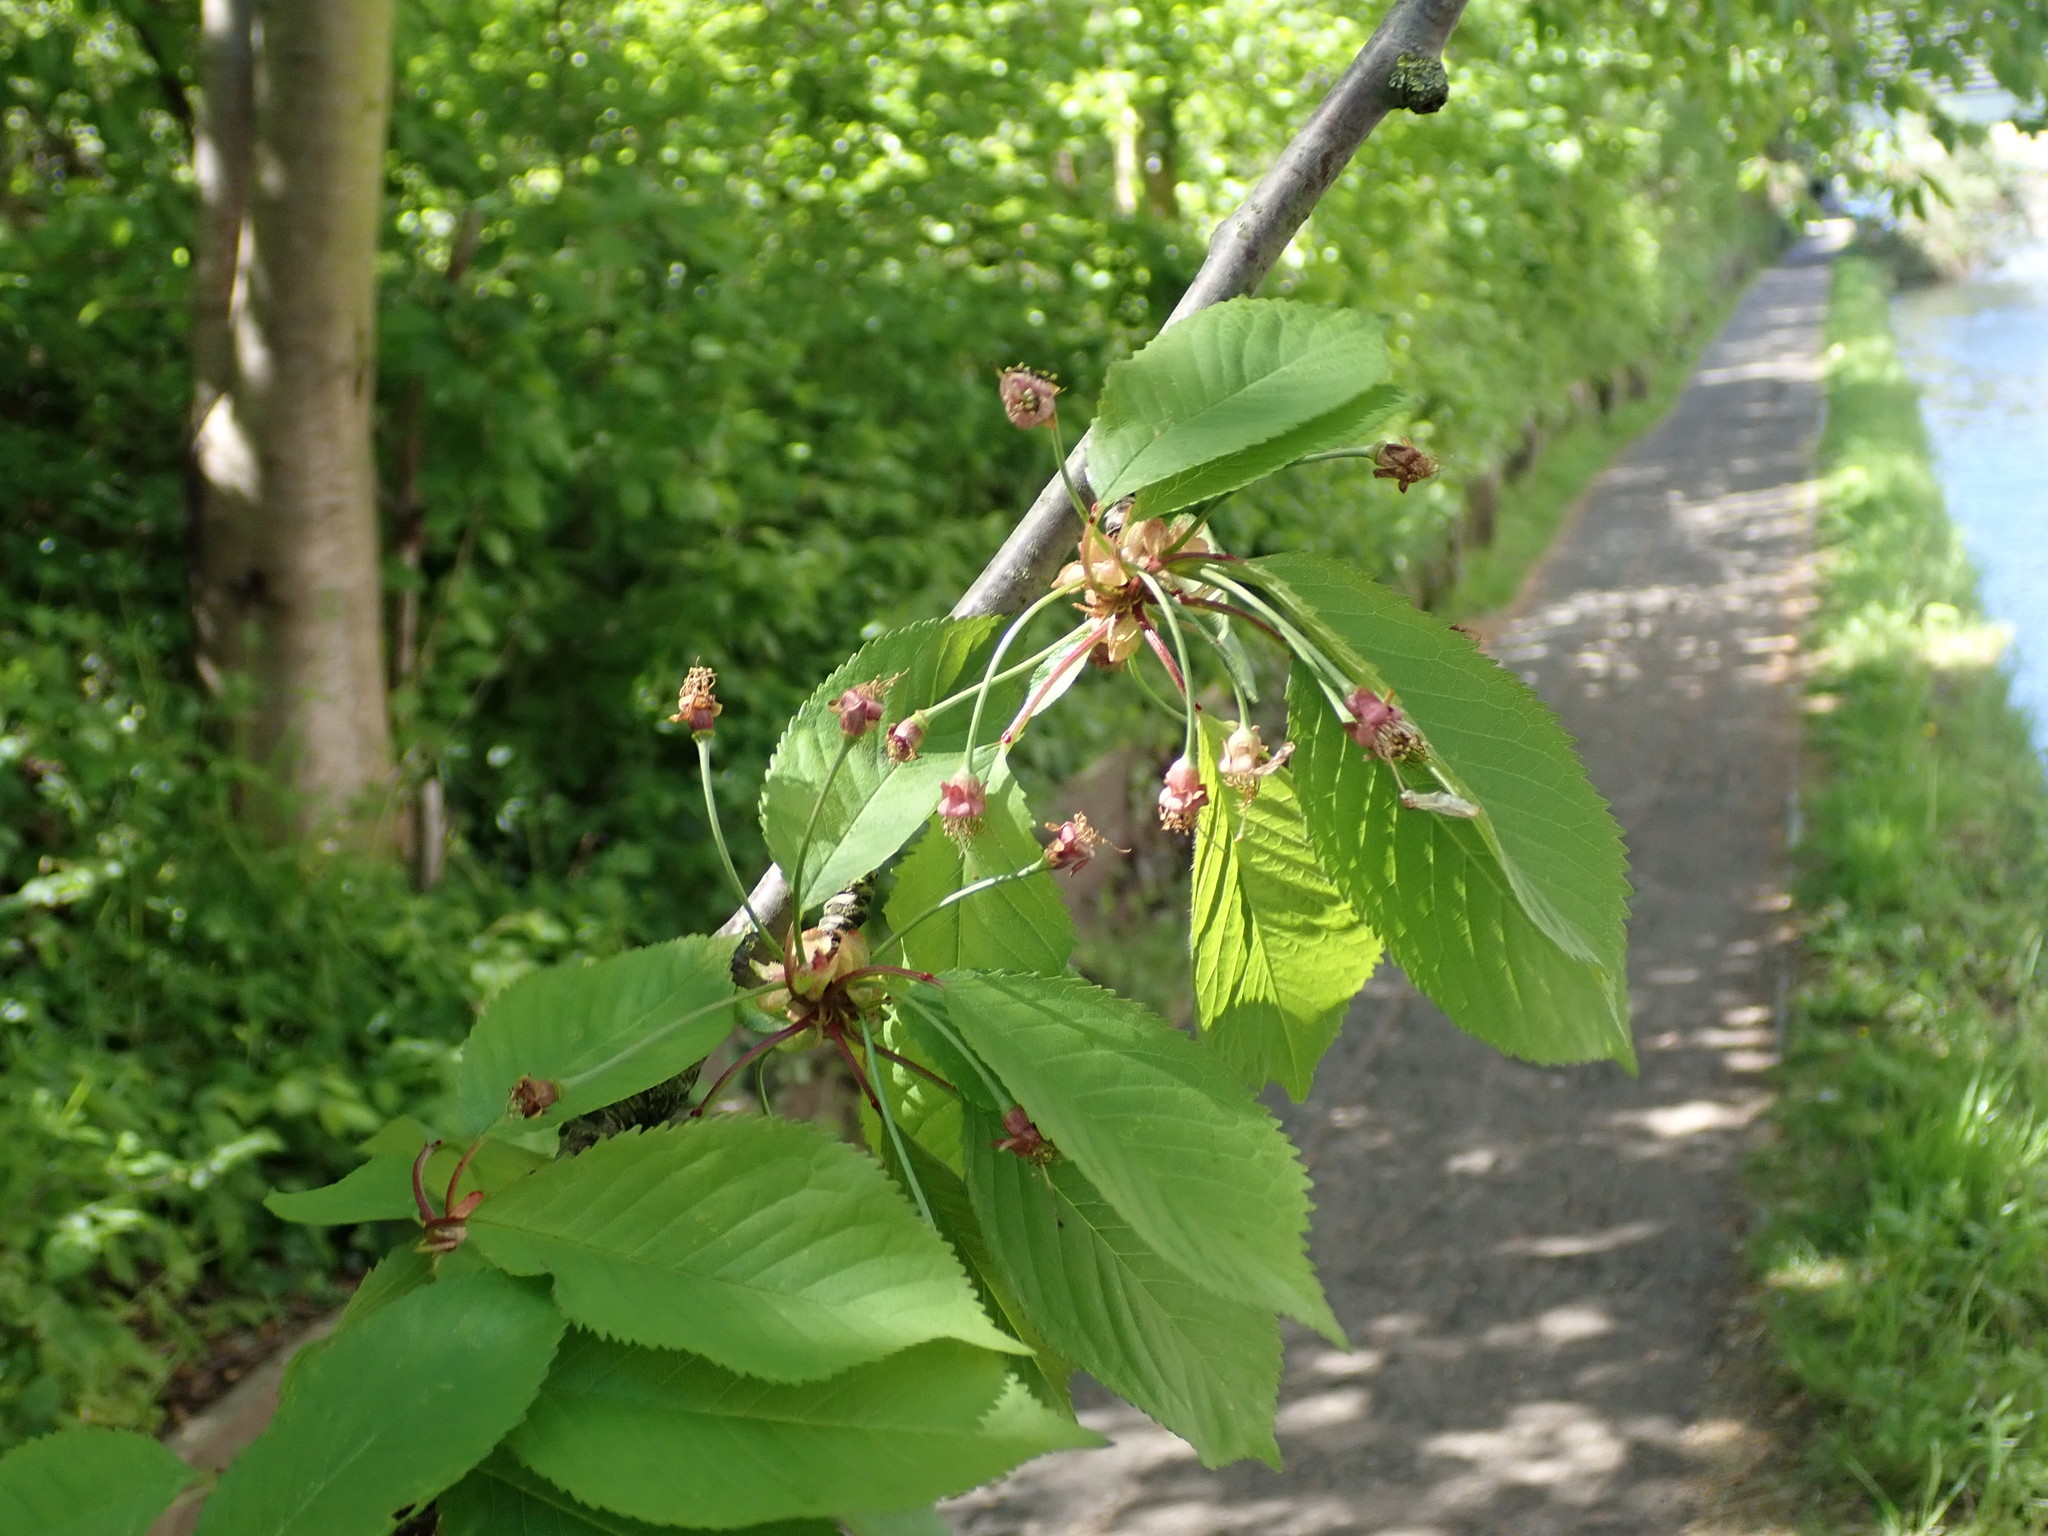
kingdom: Plantae
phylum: Tracheophyta
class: Magnoliopsida
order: Rosales
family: Rosaceae
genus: Prunus
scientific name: Prunus avium
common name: Sweet cherry
